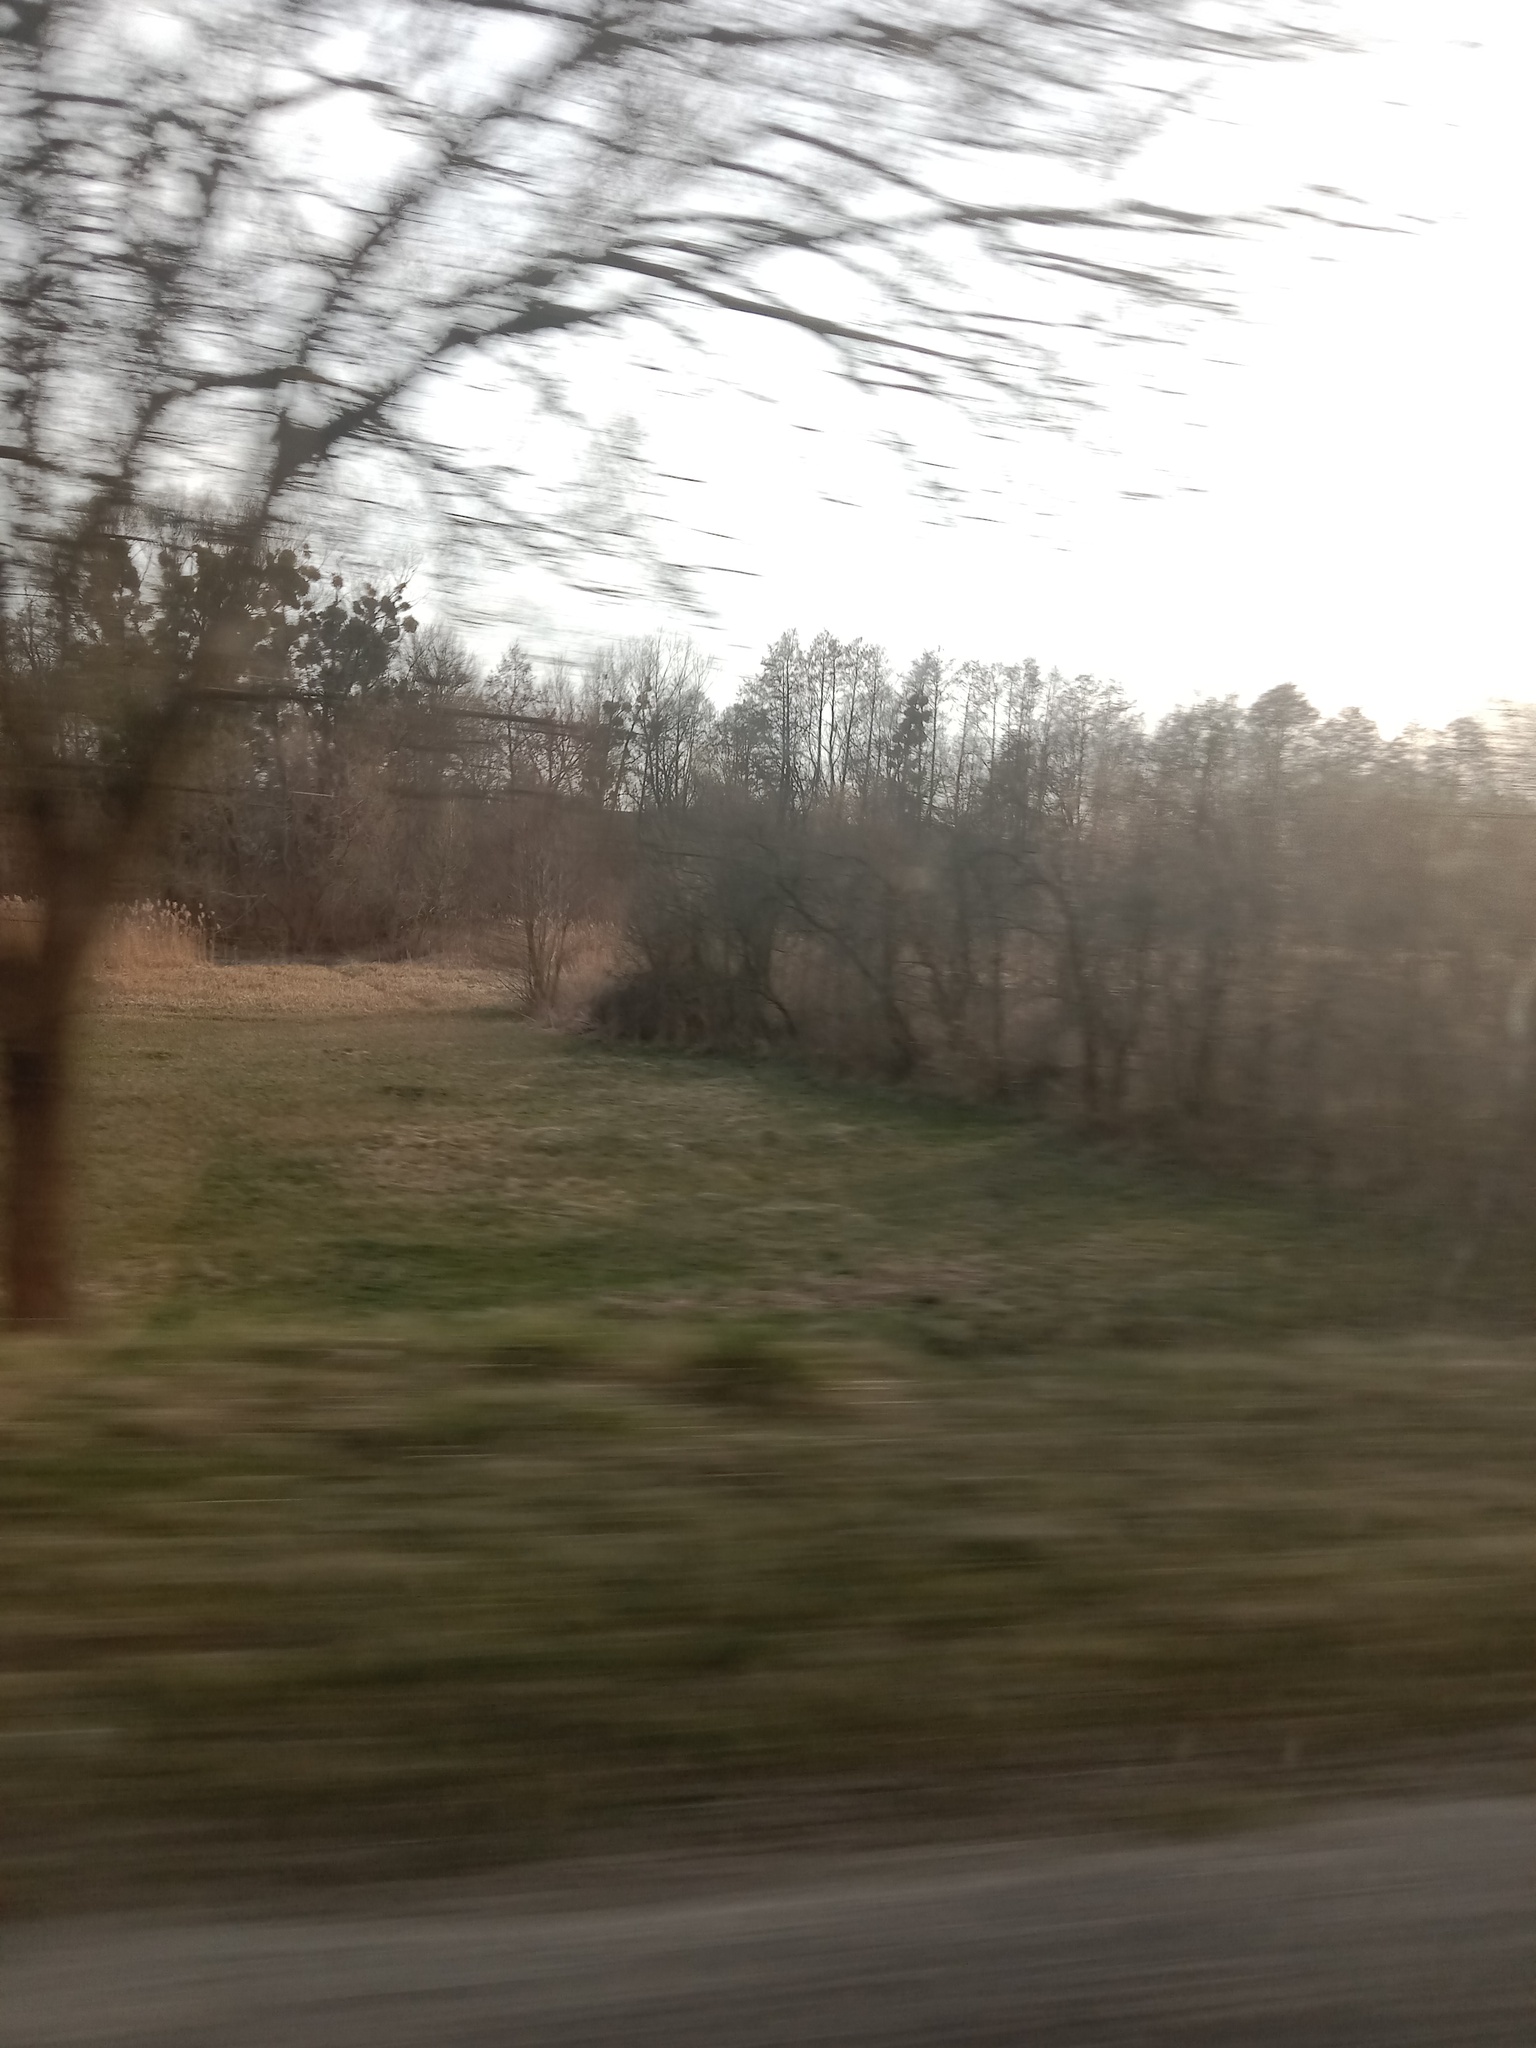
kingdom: Plantae
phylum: Tracheophyta
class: Magnoliopsida
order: Santalales
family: Viscaceae
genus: Viscum
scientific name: Viscum album
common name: Mistletoe
